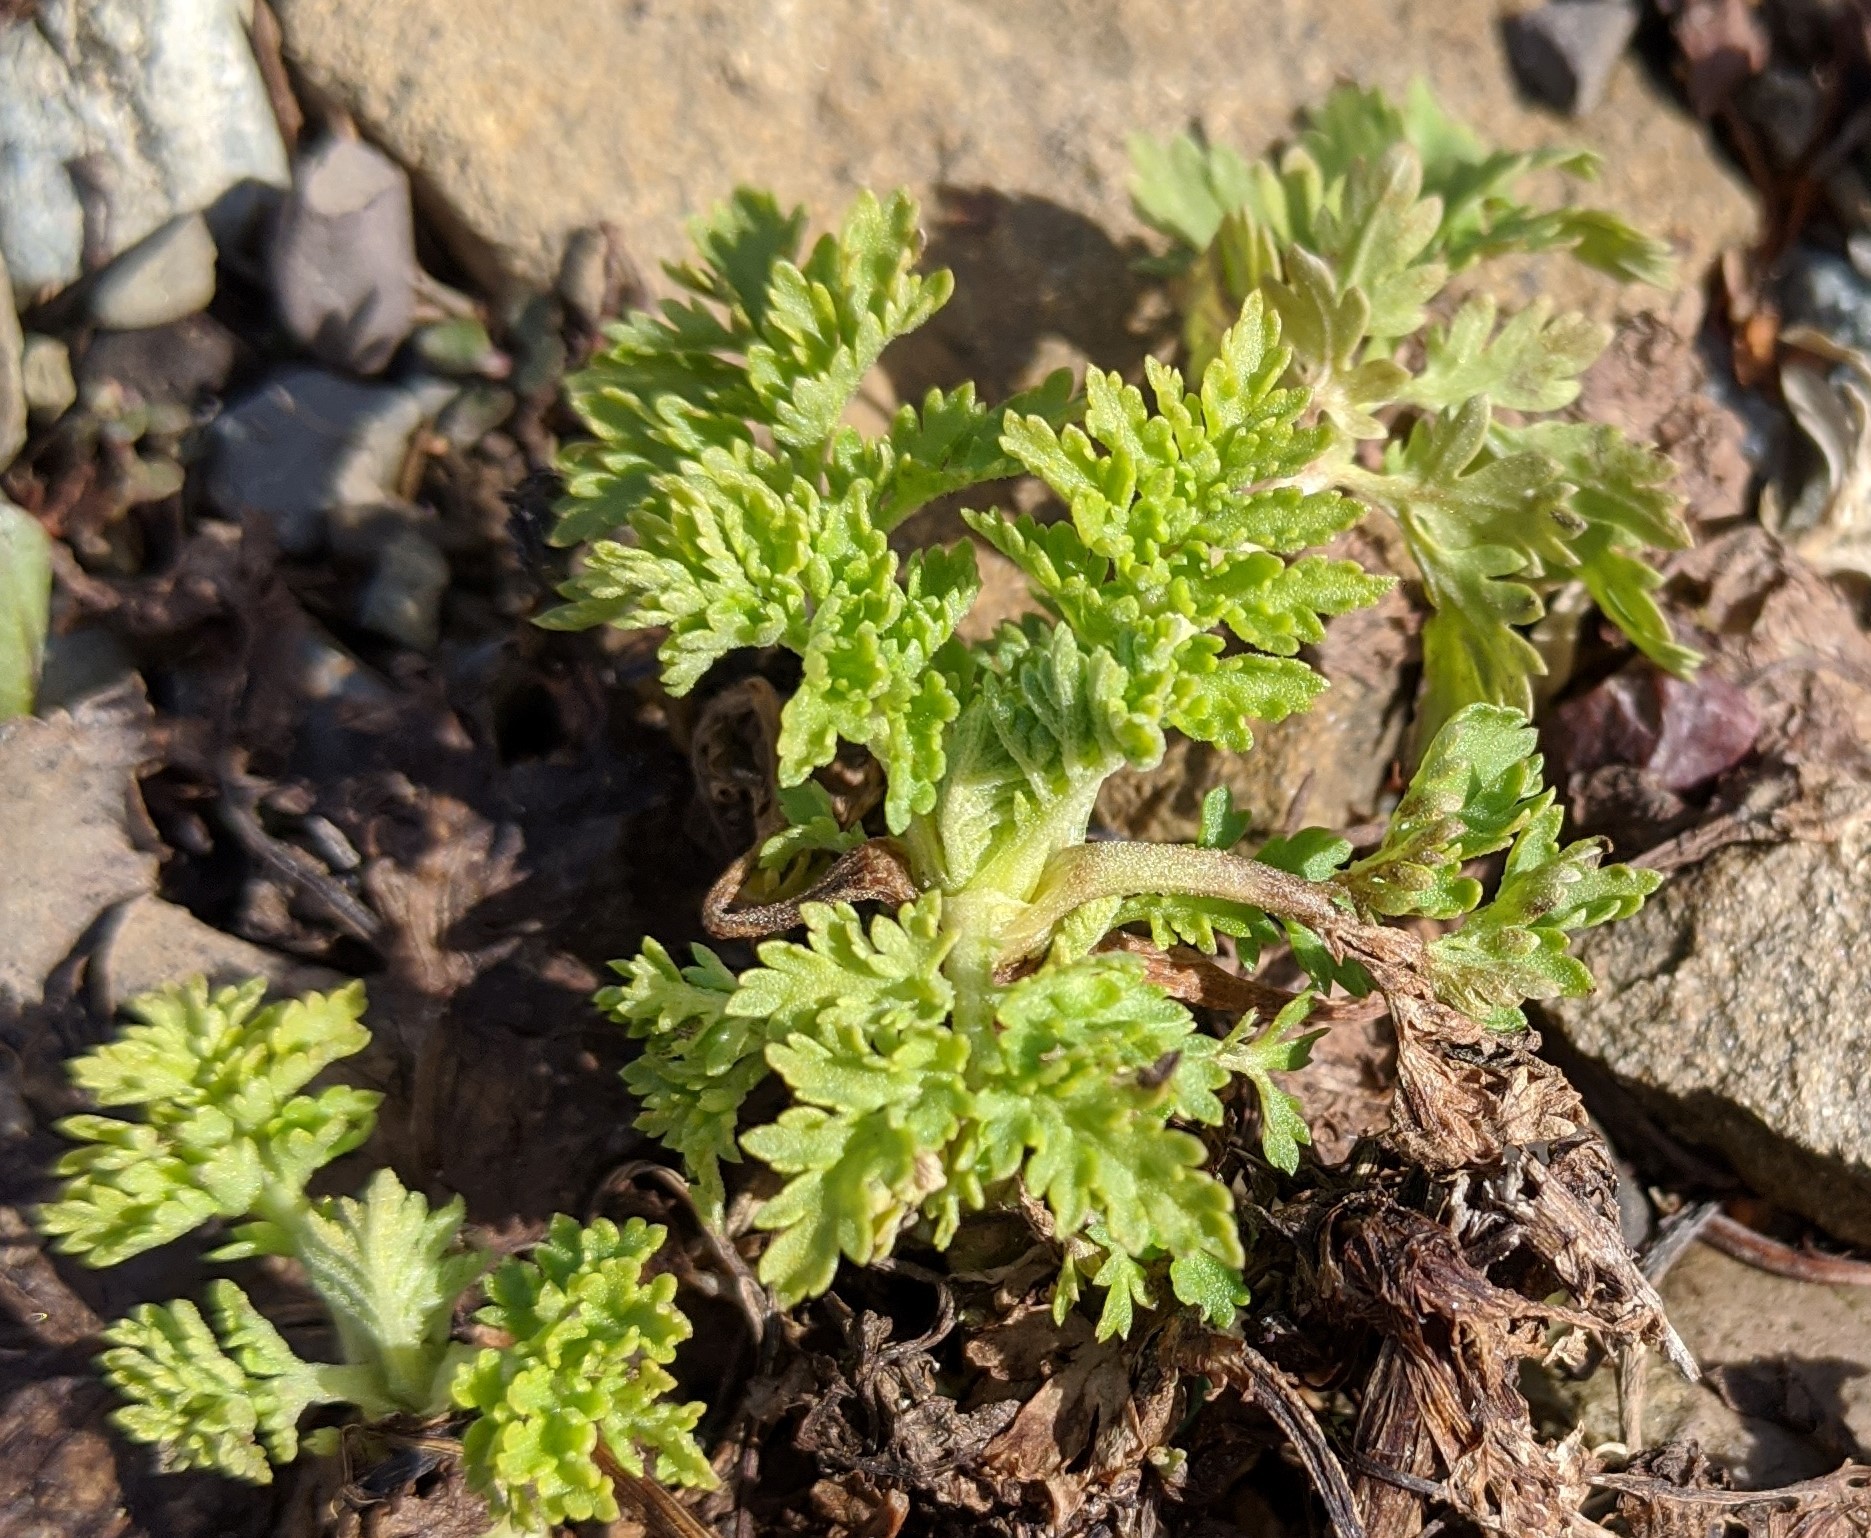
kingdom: Plantae
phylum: Tracheophyta
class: Magnoliopsida
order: Apiales
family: Apiaceae
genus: Daucus
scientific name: Daucus carota
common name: Wild carrot
